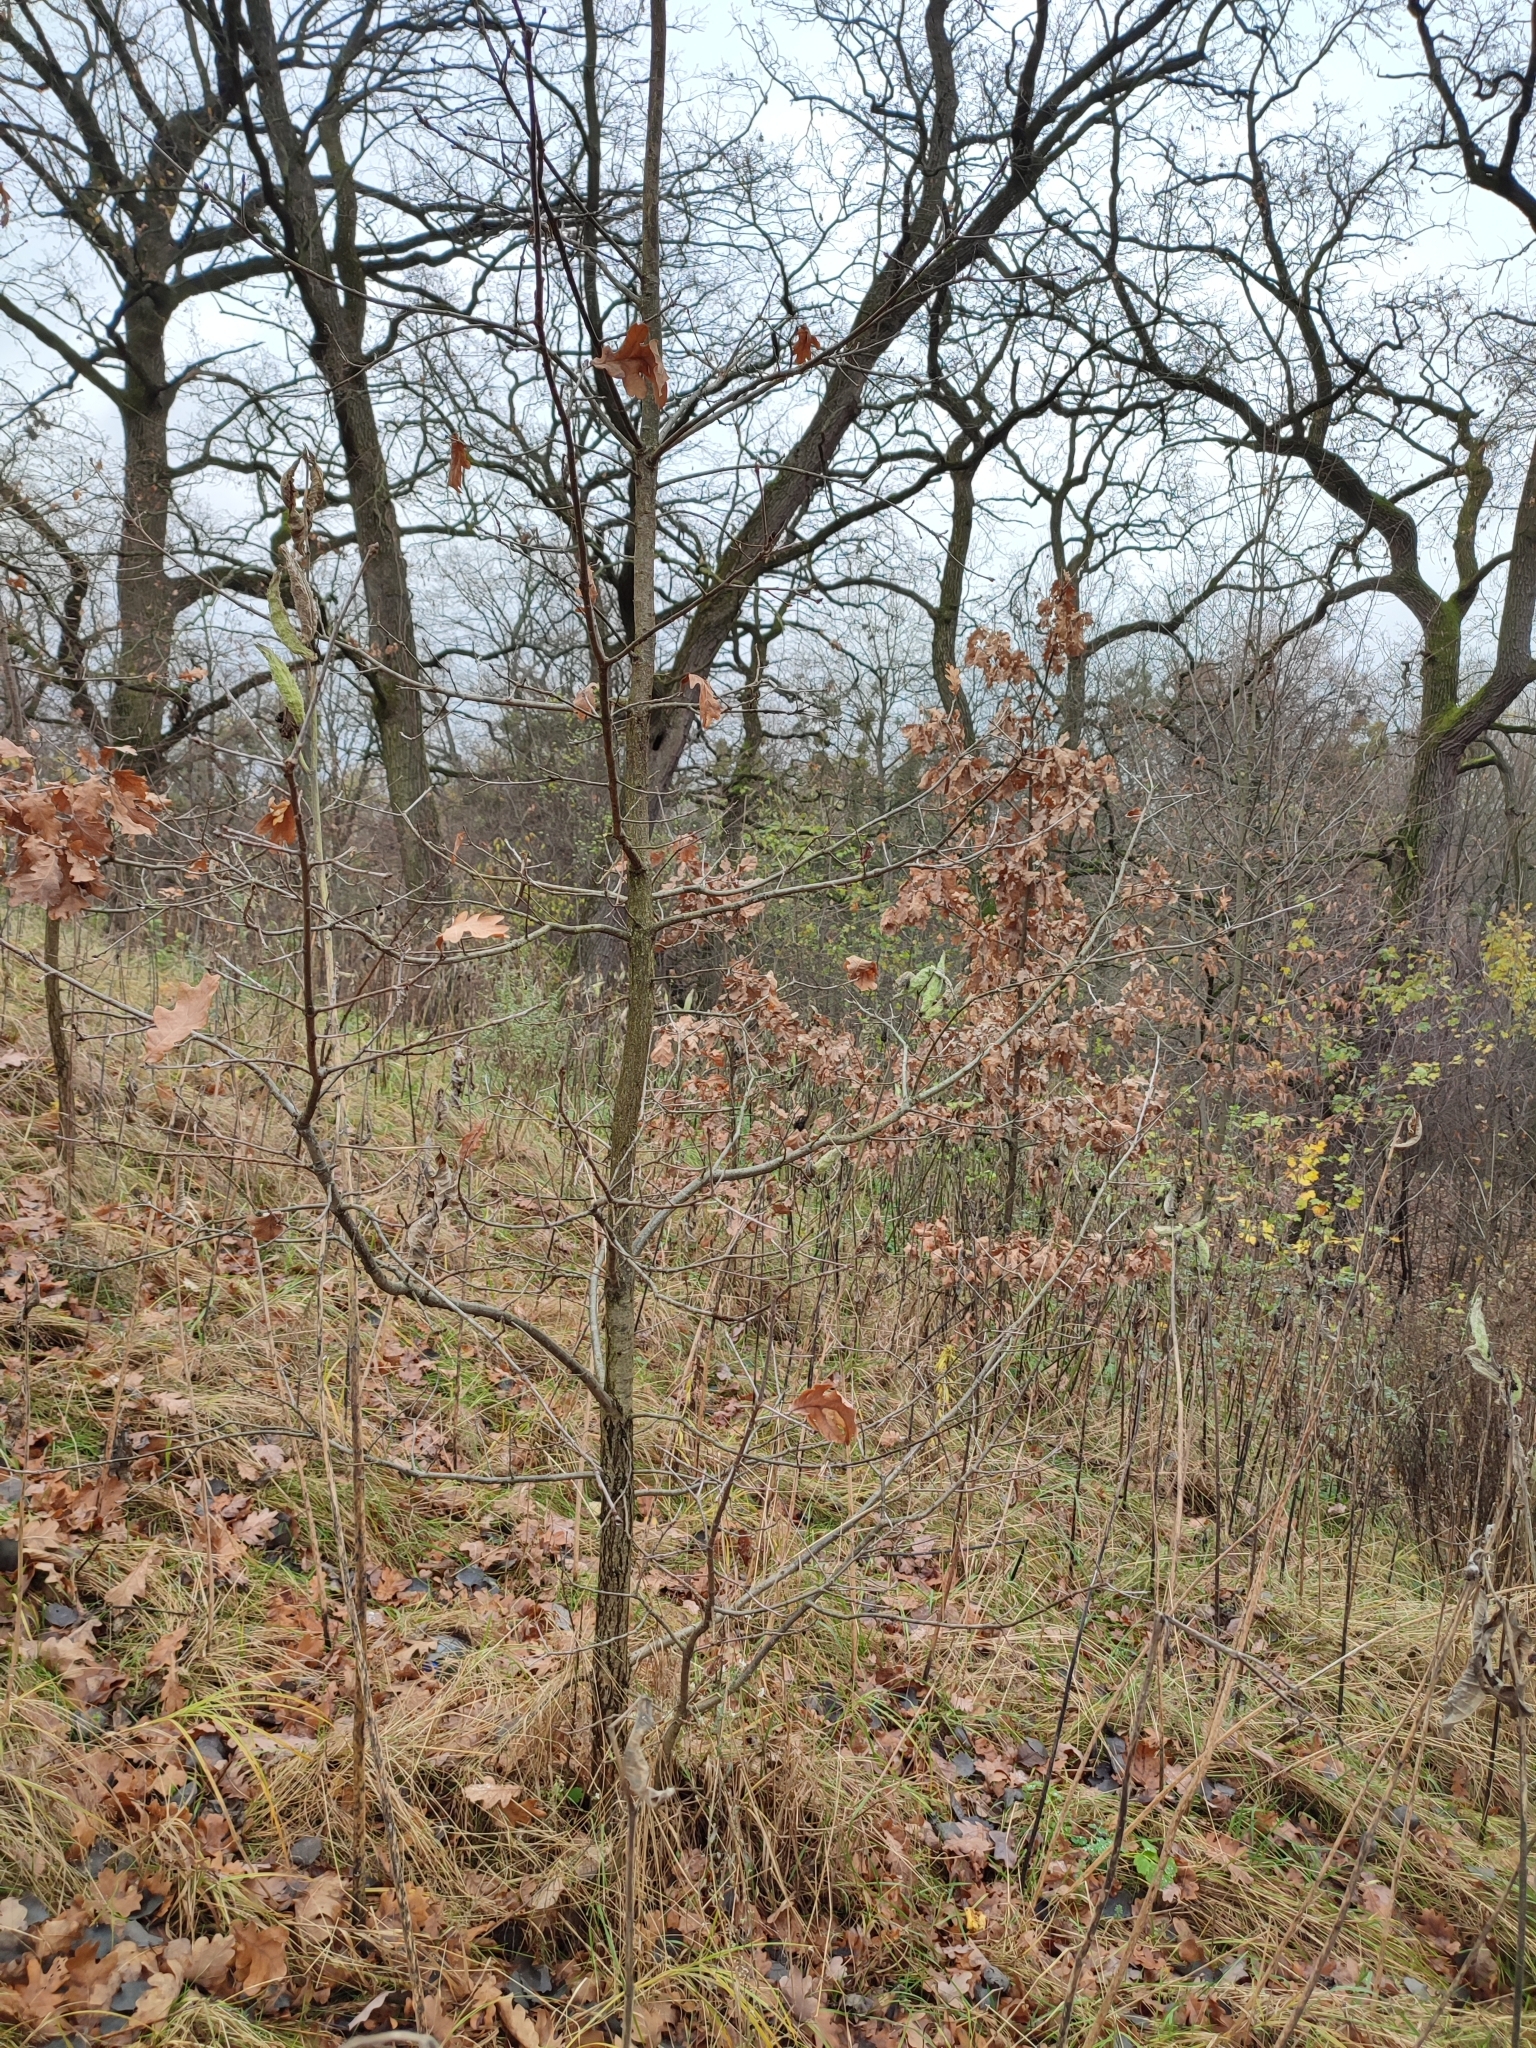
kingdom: Plantae
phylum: Tracheophyta
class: Magnoliopsida
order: Fagales
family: Fagaceae
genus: Quercus
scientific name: Quercus robur
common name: Pedunculate oak
